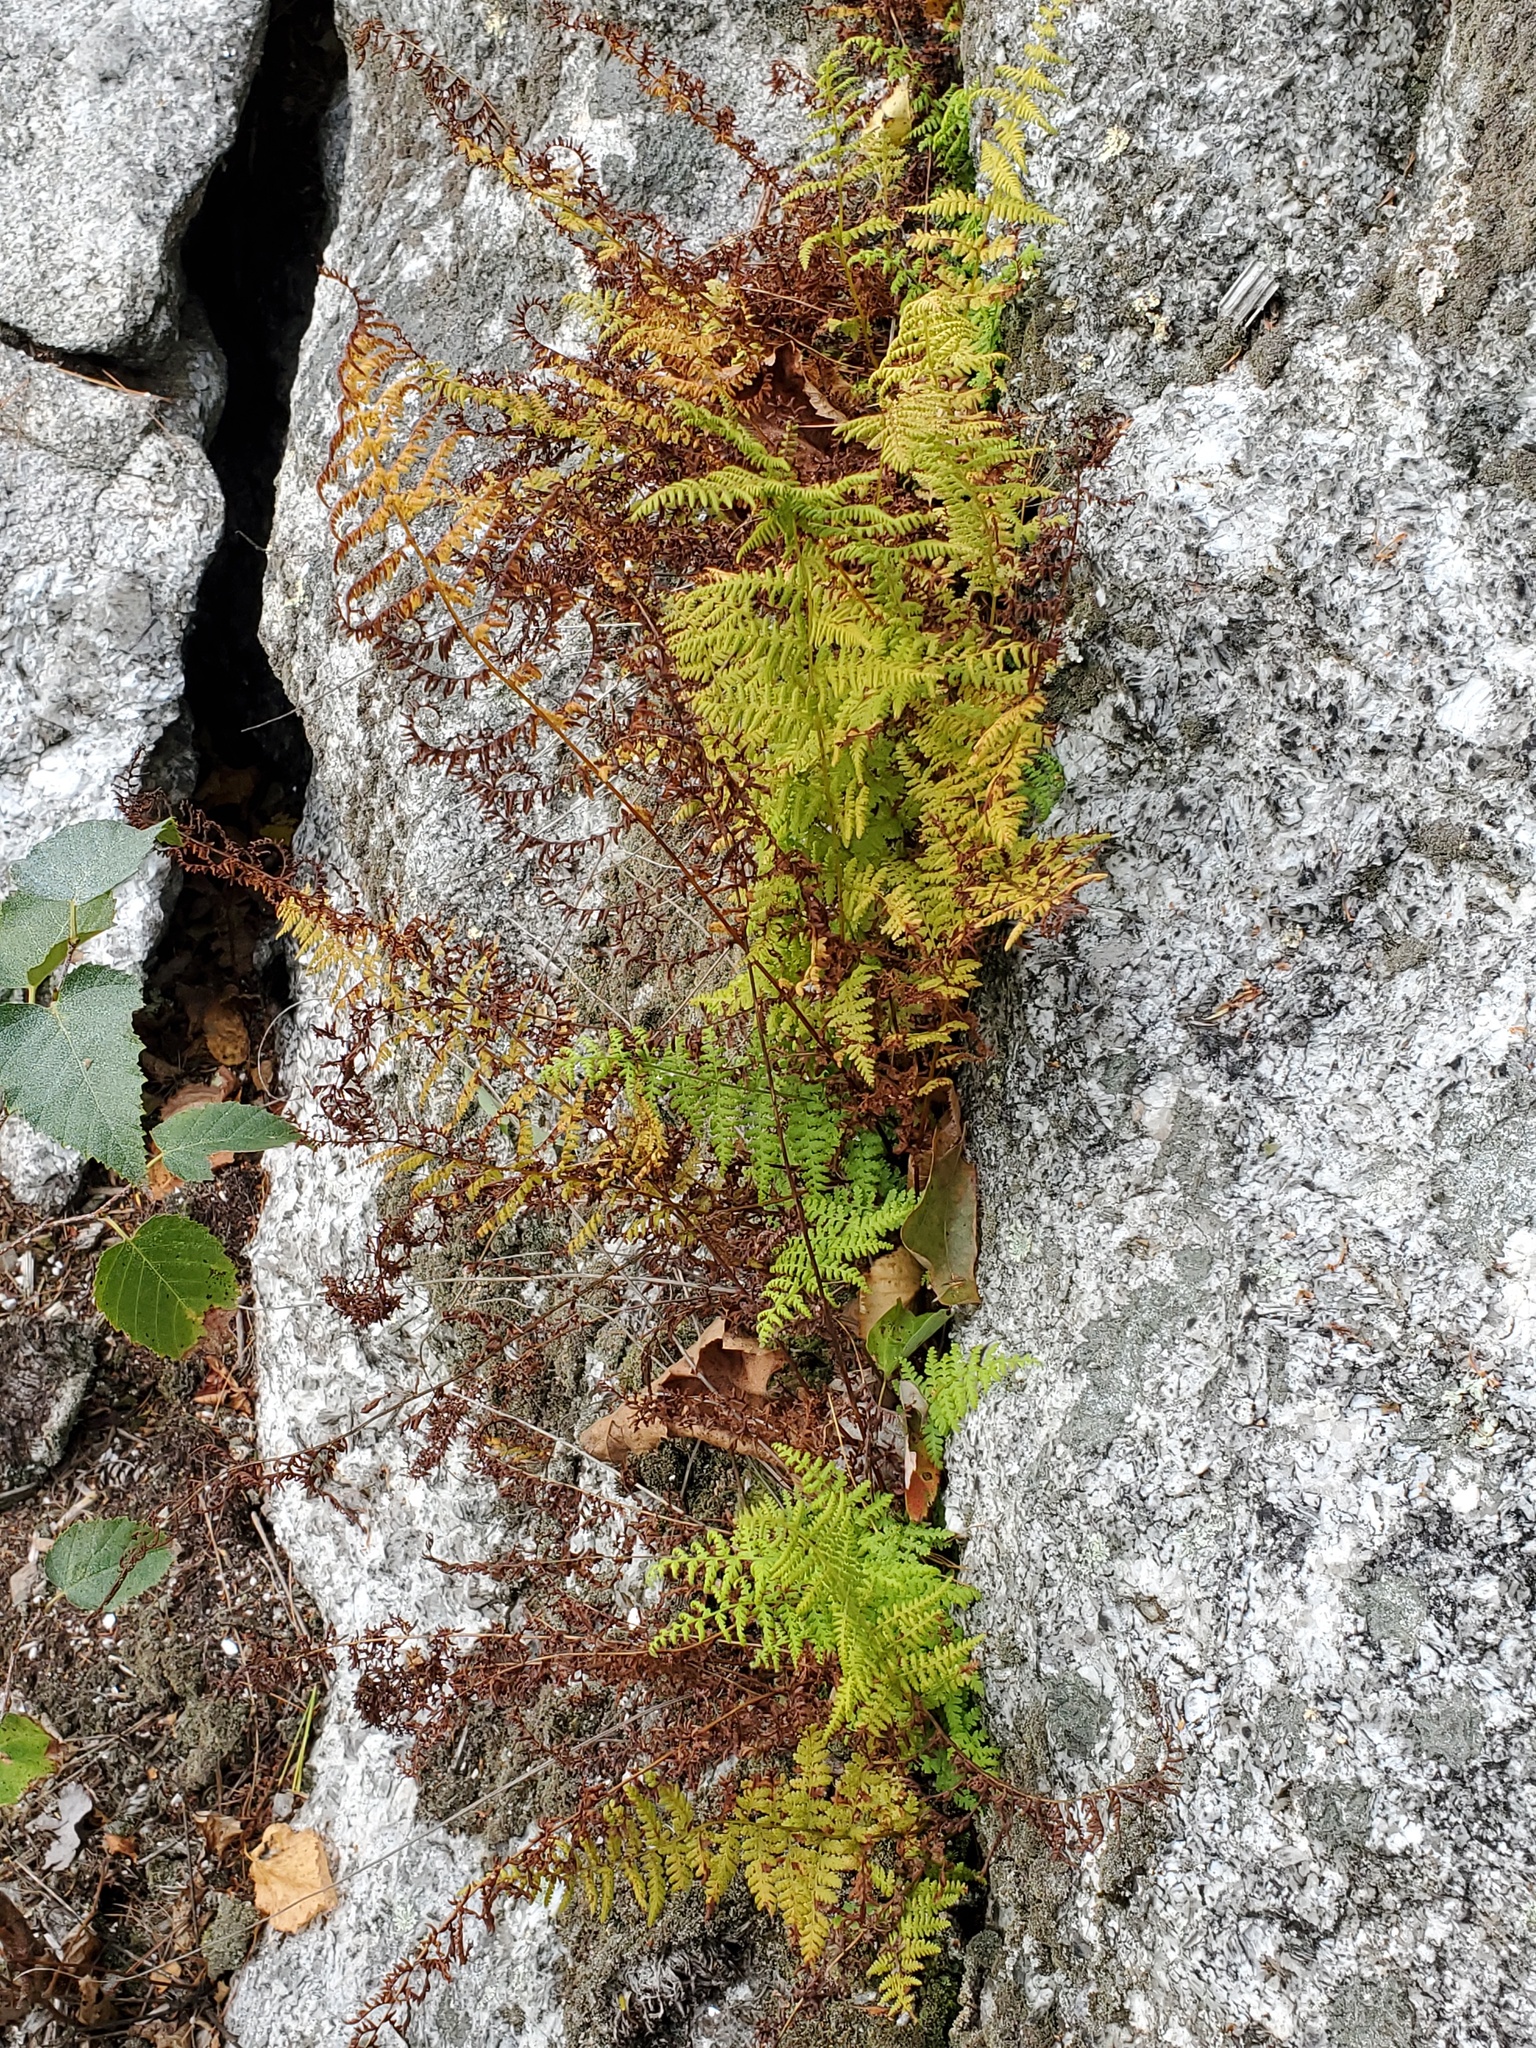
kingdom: Plantae
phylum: Tracheophyta
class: Polypodiopsida
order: Polypodiales
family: Dennstaedtiaceae
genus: Sitobolium
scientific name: Sitobolium punctilobum
